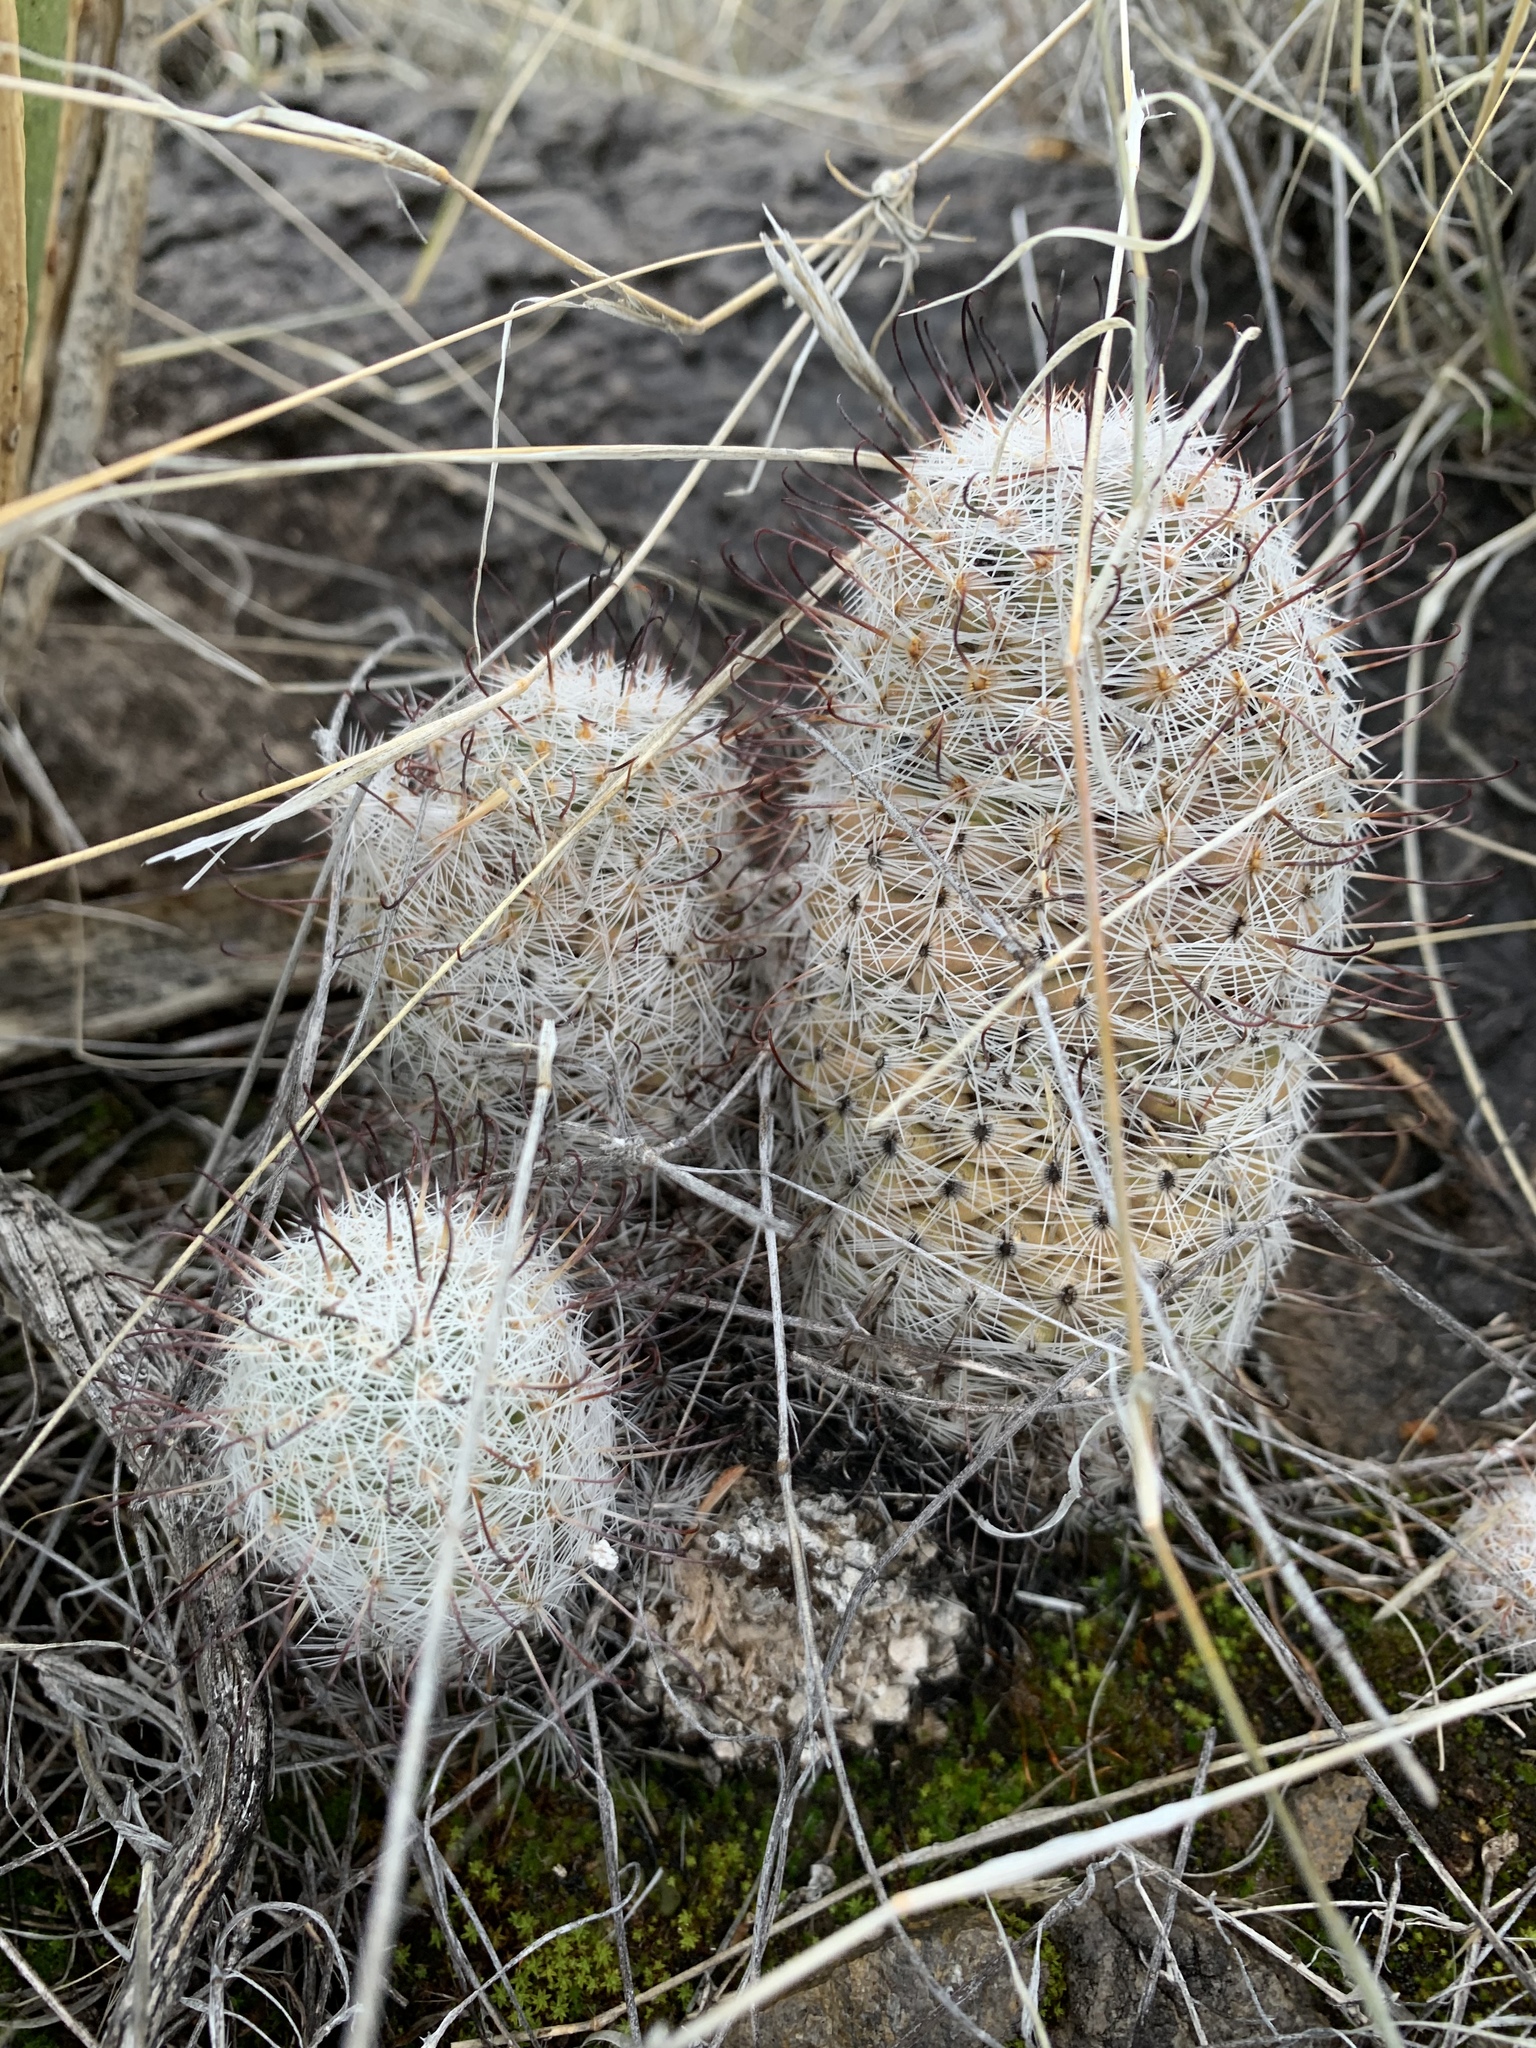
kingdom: Plantae
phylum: Tracheophyta
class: Magnoliopsida
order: Caryophyllales
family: Cactaceae
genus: Pelecyphora
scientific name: Pelecyphora tuberculosa
